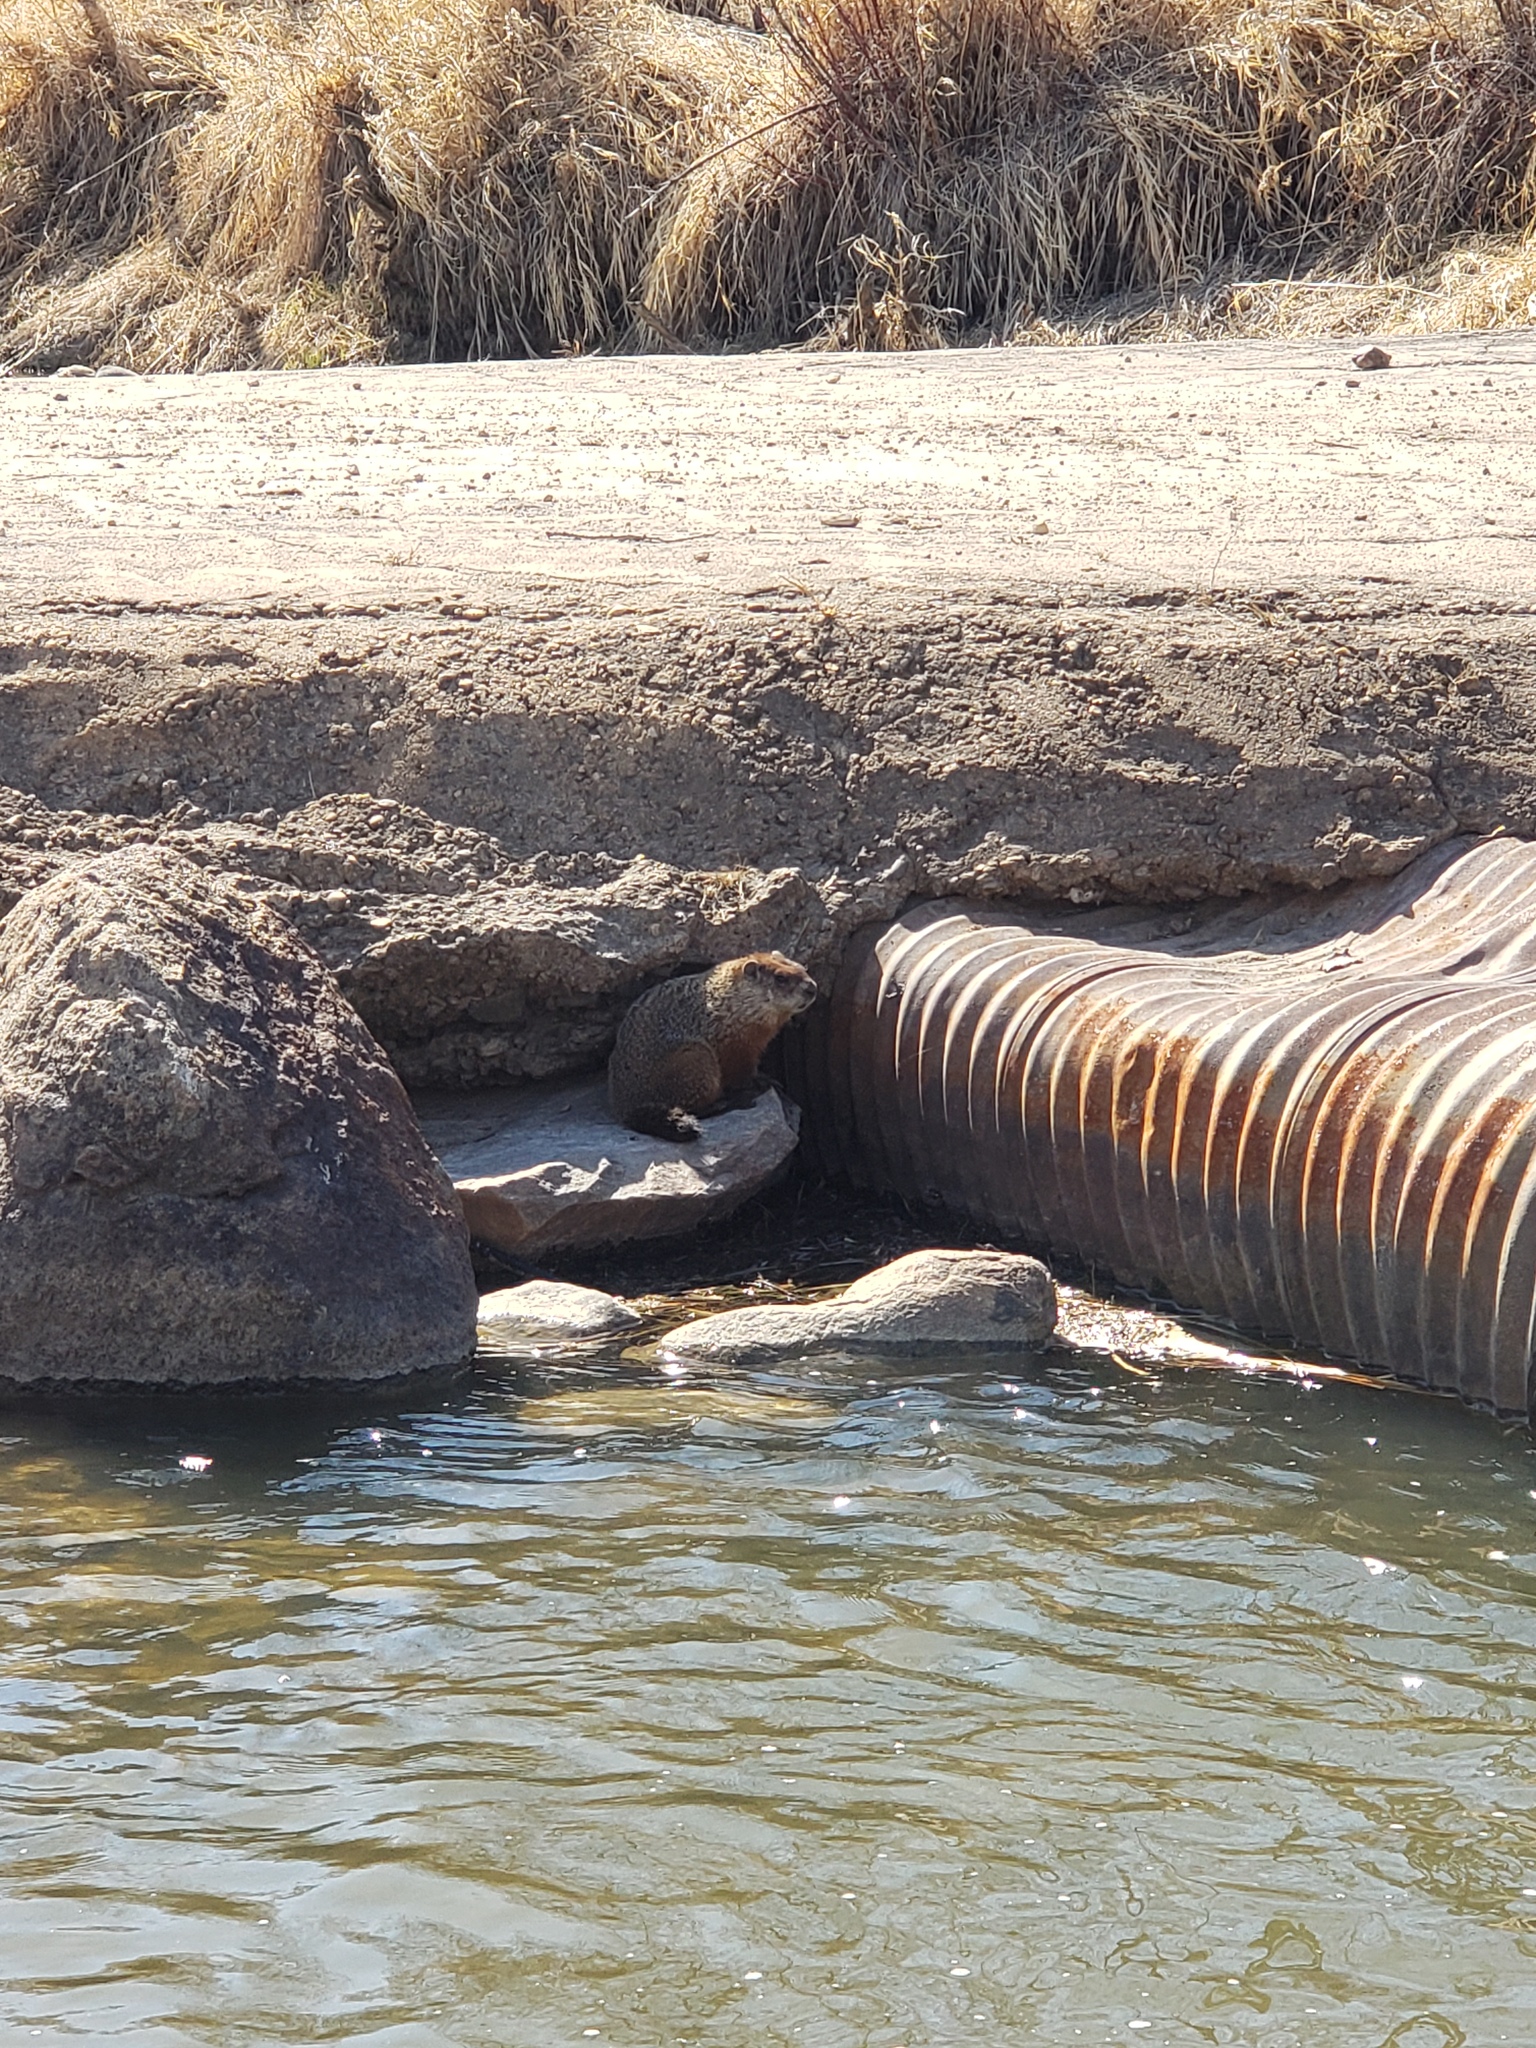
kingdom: Animalia
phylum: Chordata
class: Mammalia
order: Rodentia
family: Sciuridae
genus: Marmota
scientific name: Marmota monax
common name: Groundhog
